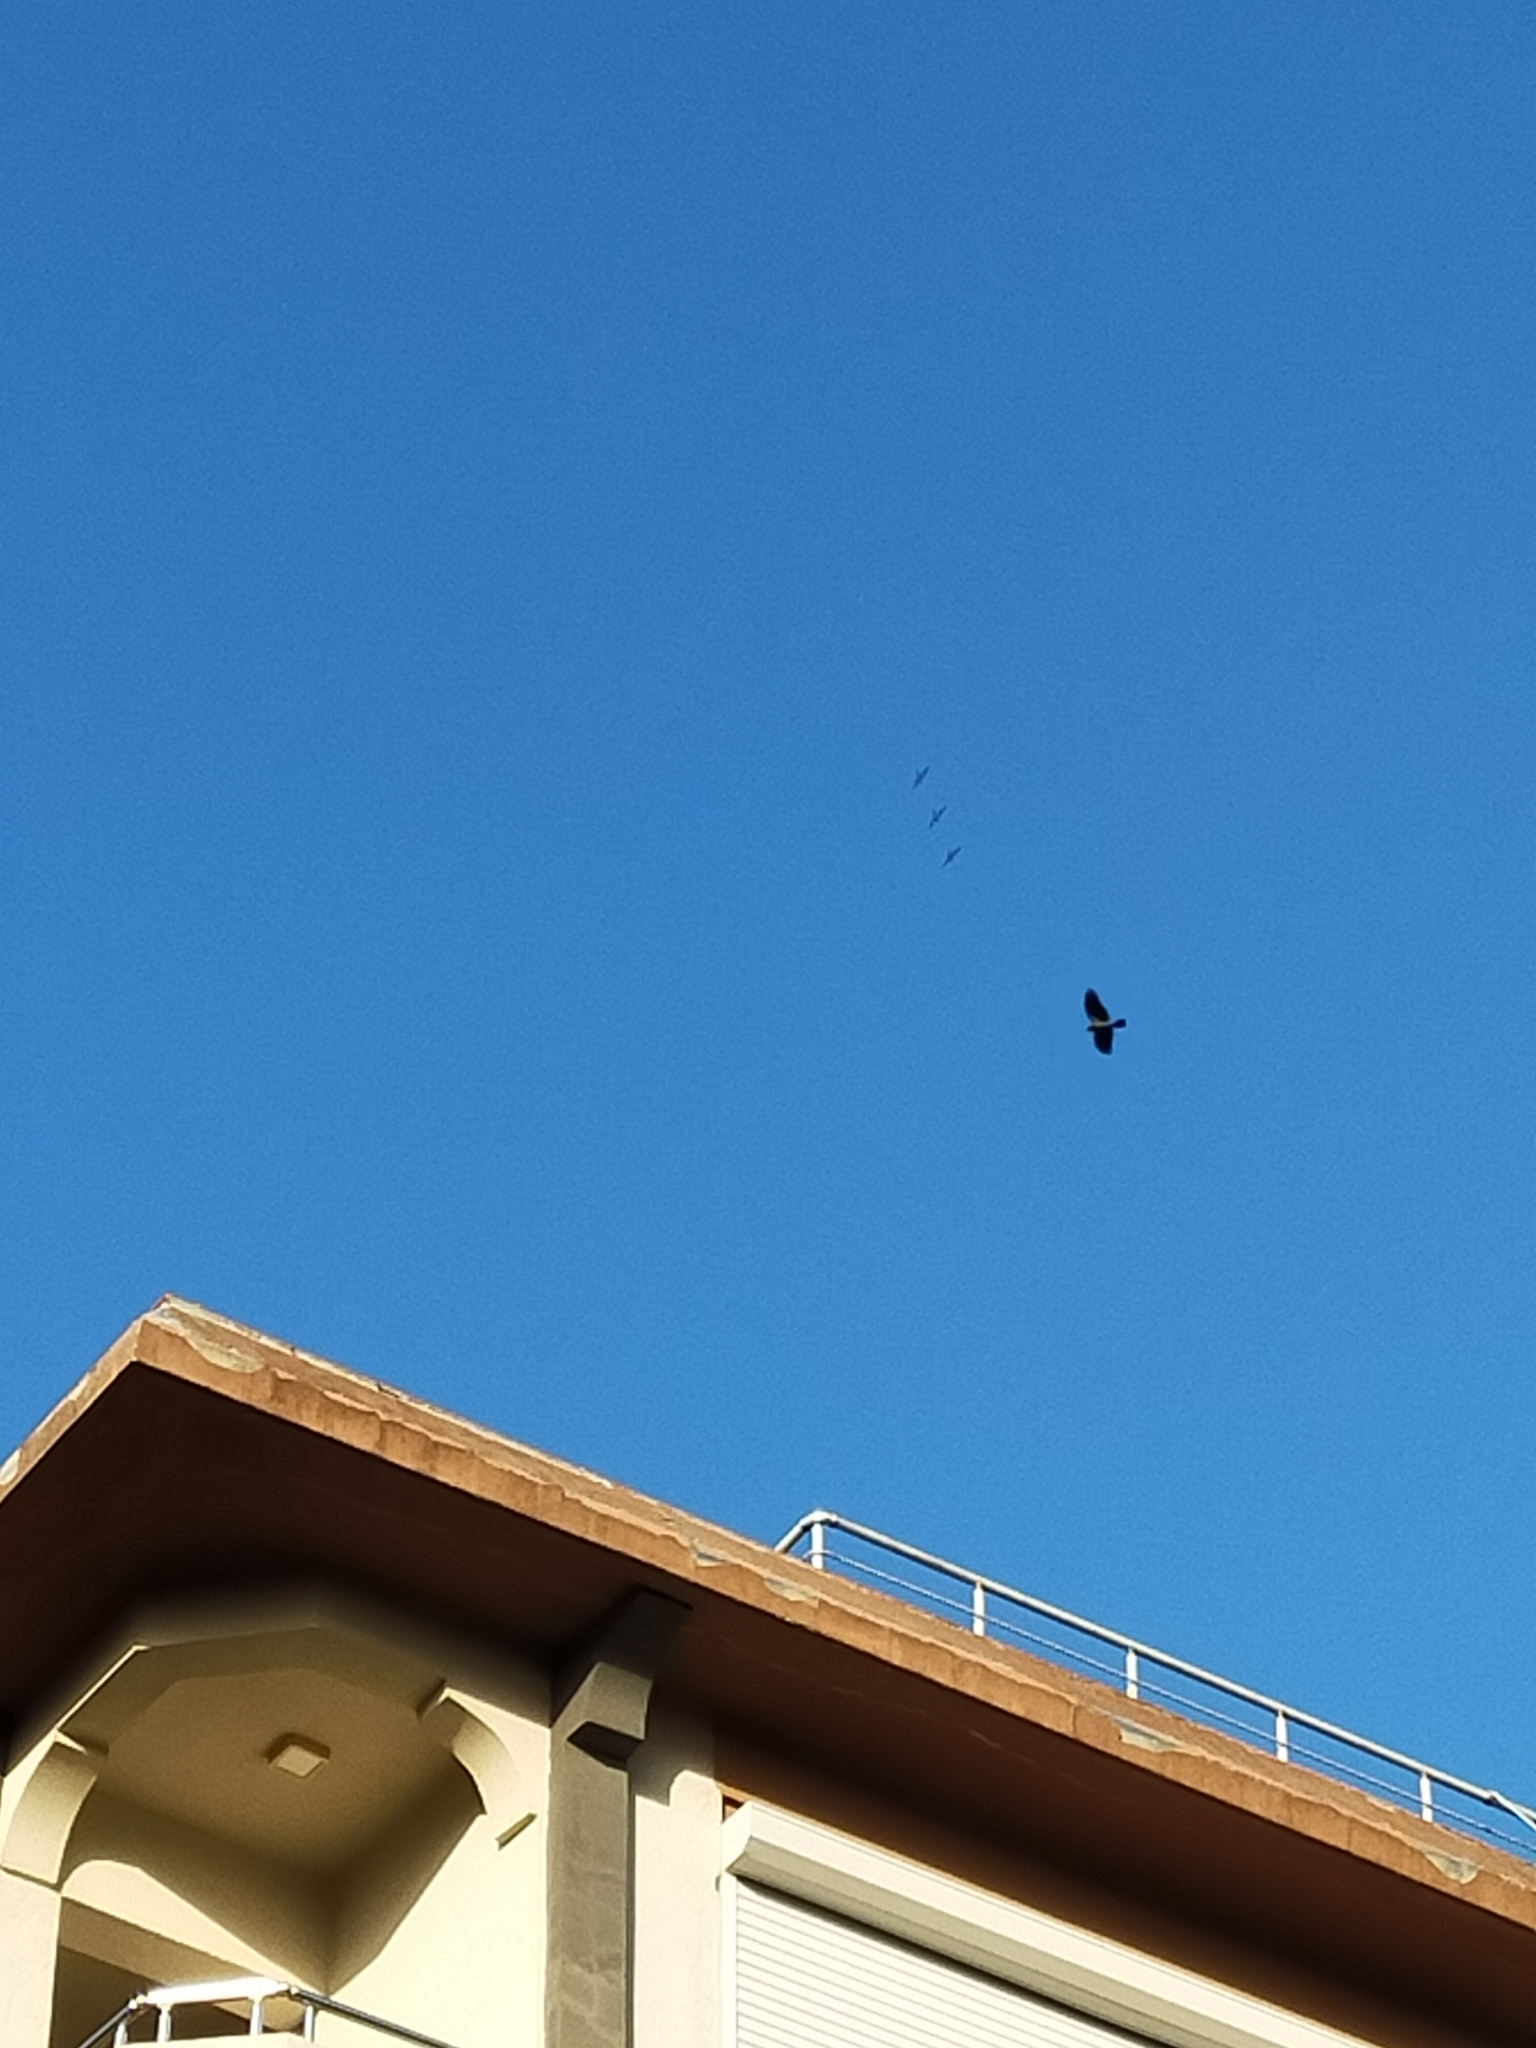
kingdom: Animalia
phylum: Chordata
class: Aves
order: Passeriformes
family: Corvidae
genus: Corvus
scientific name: Corvus cornix
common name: Hooded crow
